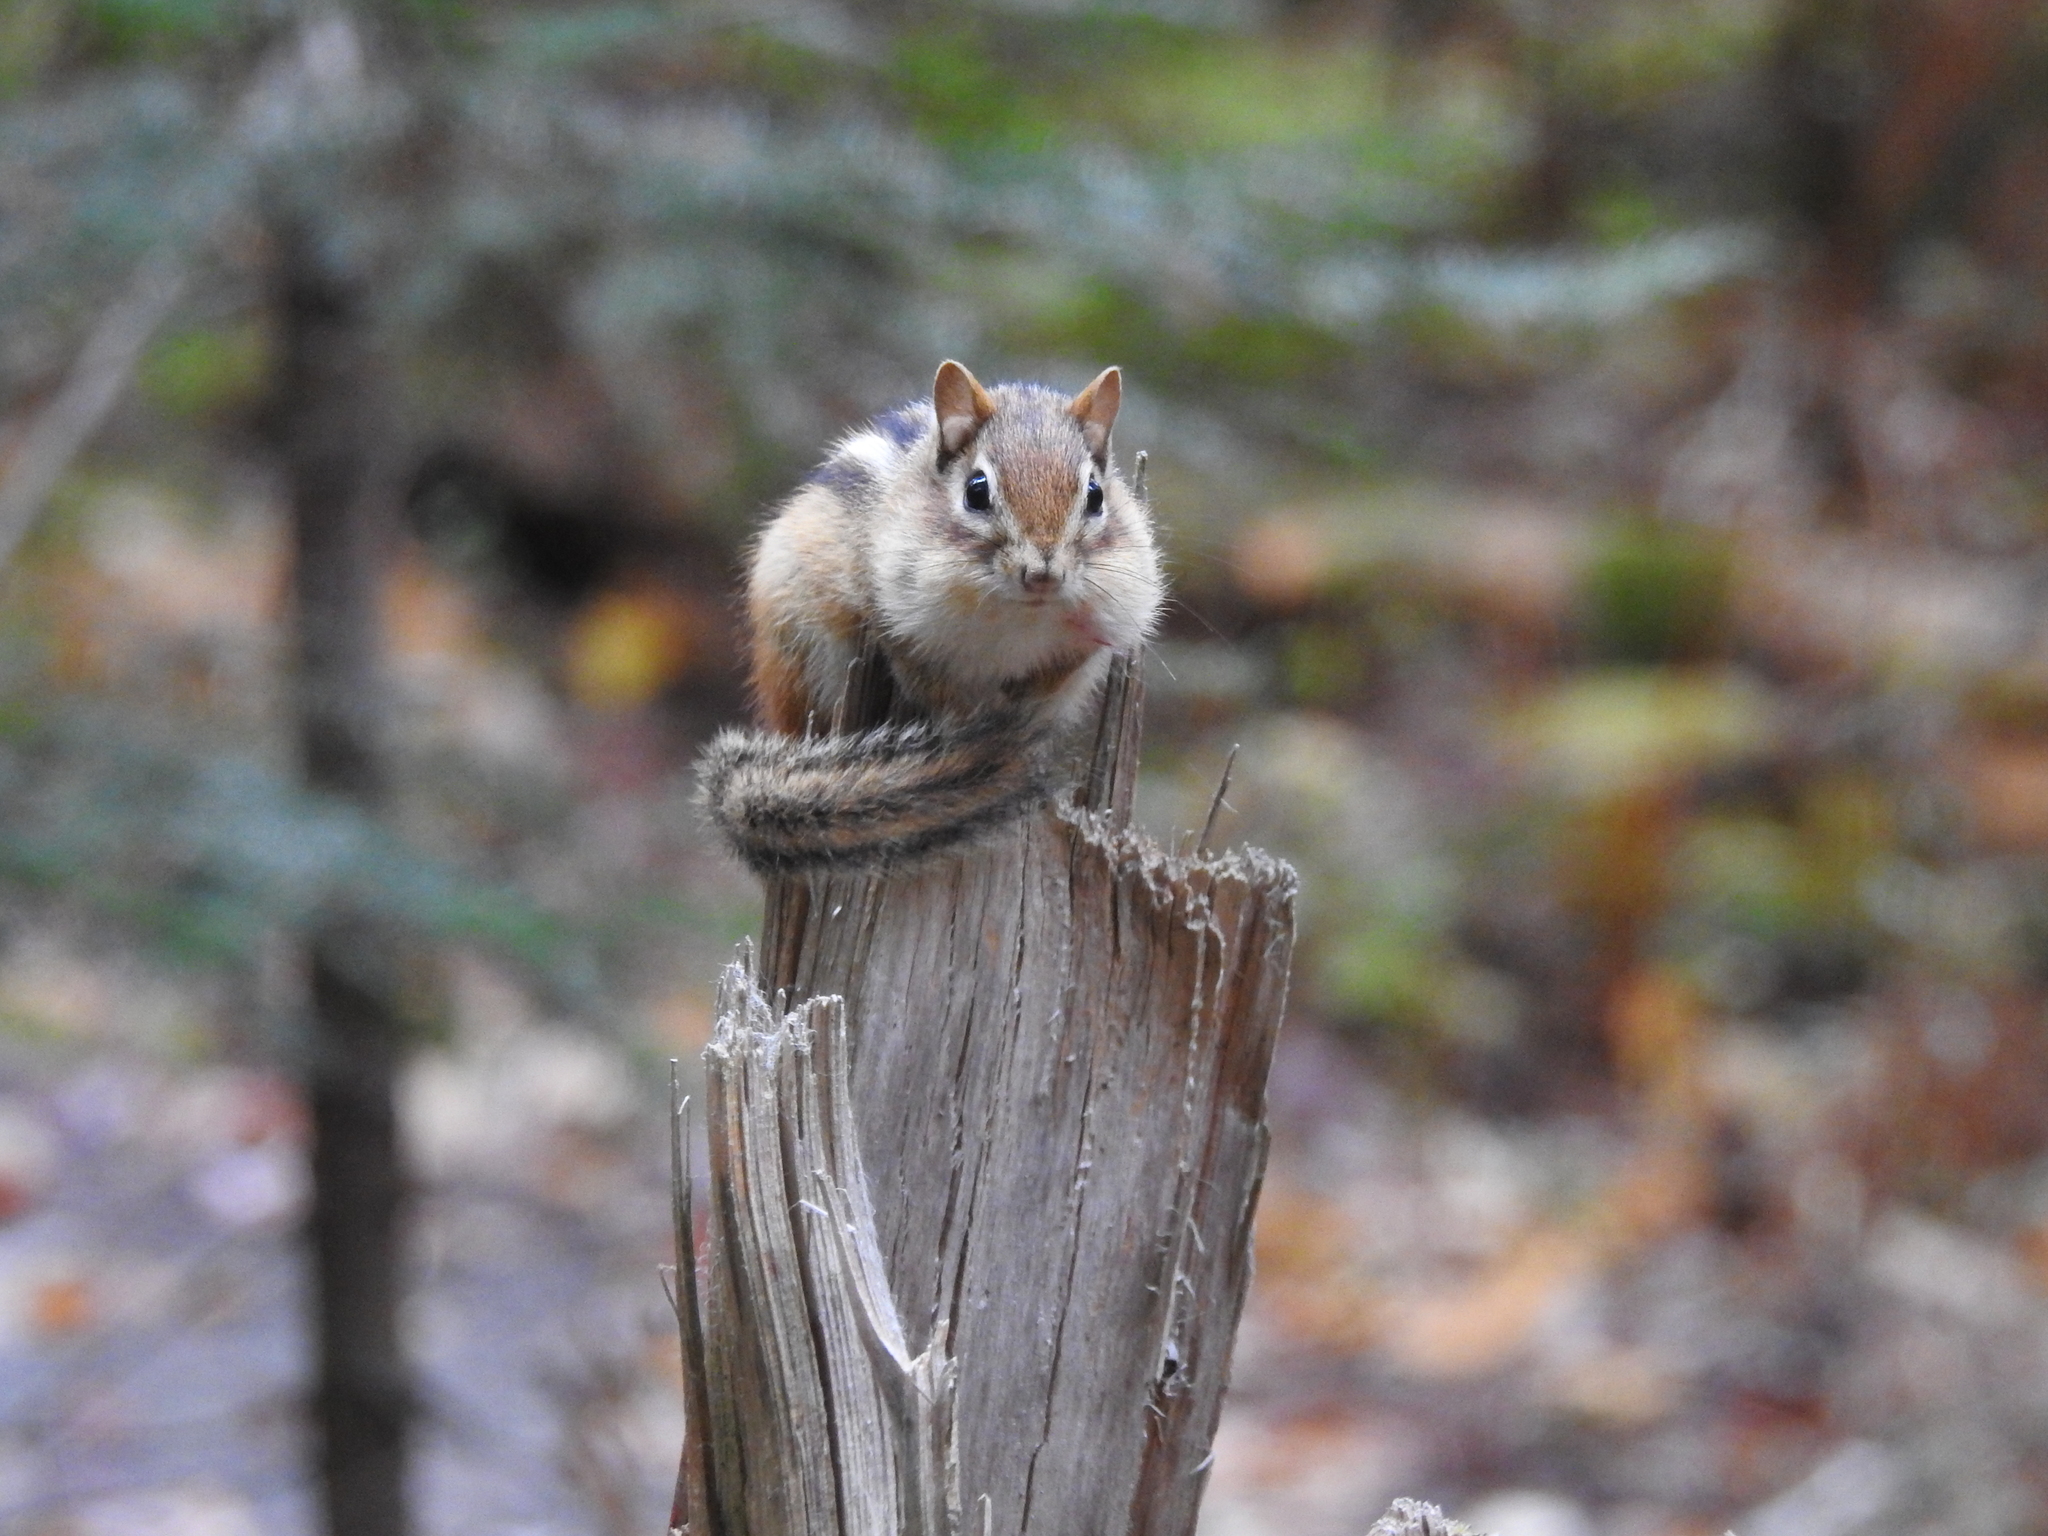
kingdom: Animalia
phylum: Chordata
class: Mammalia
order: Rodentia
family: Sciuridae
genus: Tamias
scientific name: Tamias striatus
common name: Eastern chipmunk
